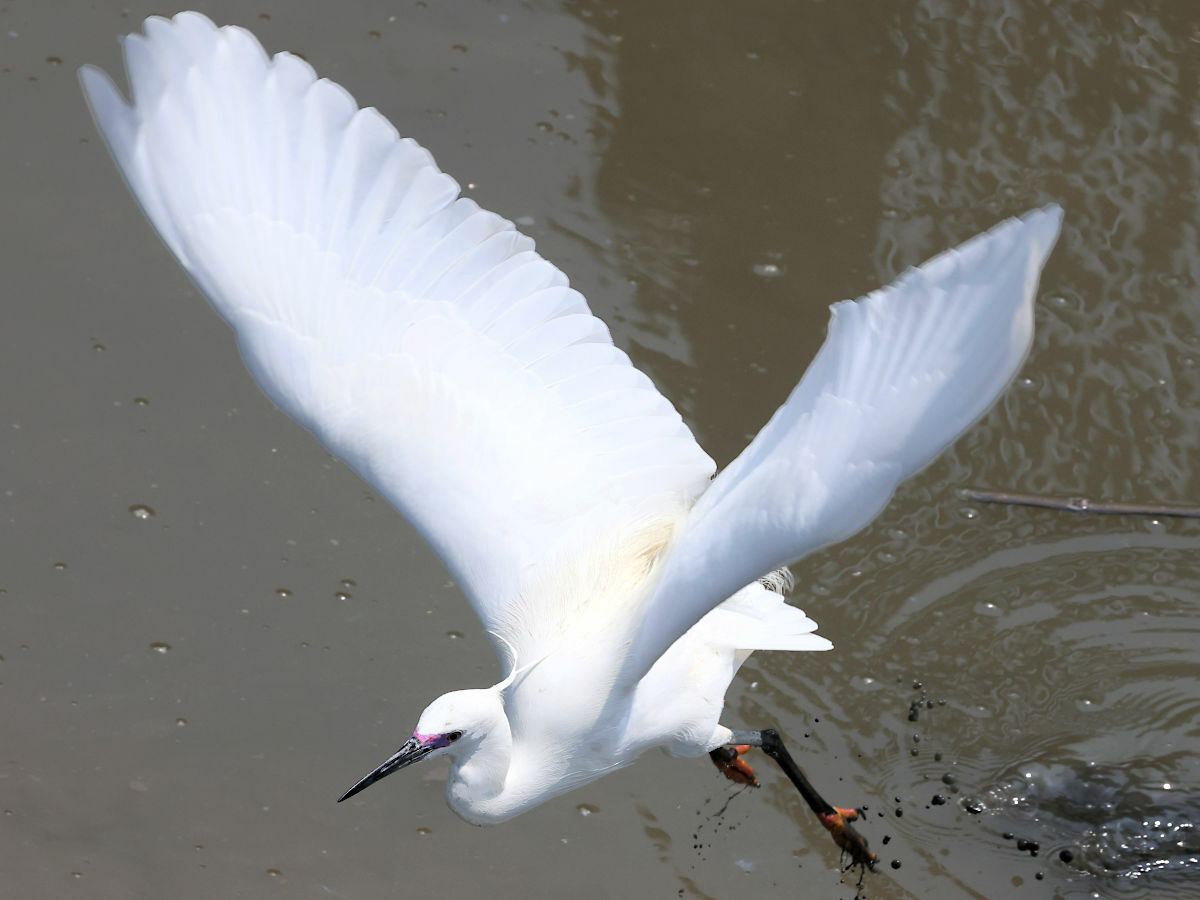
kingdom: Animalia
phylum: Chordata
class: Aves
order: Pelecaniformes
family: Ardeidae
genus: Egretta
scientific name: Egretta garzetta
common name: Little egret
